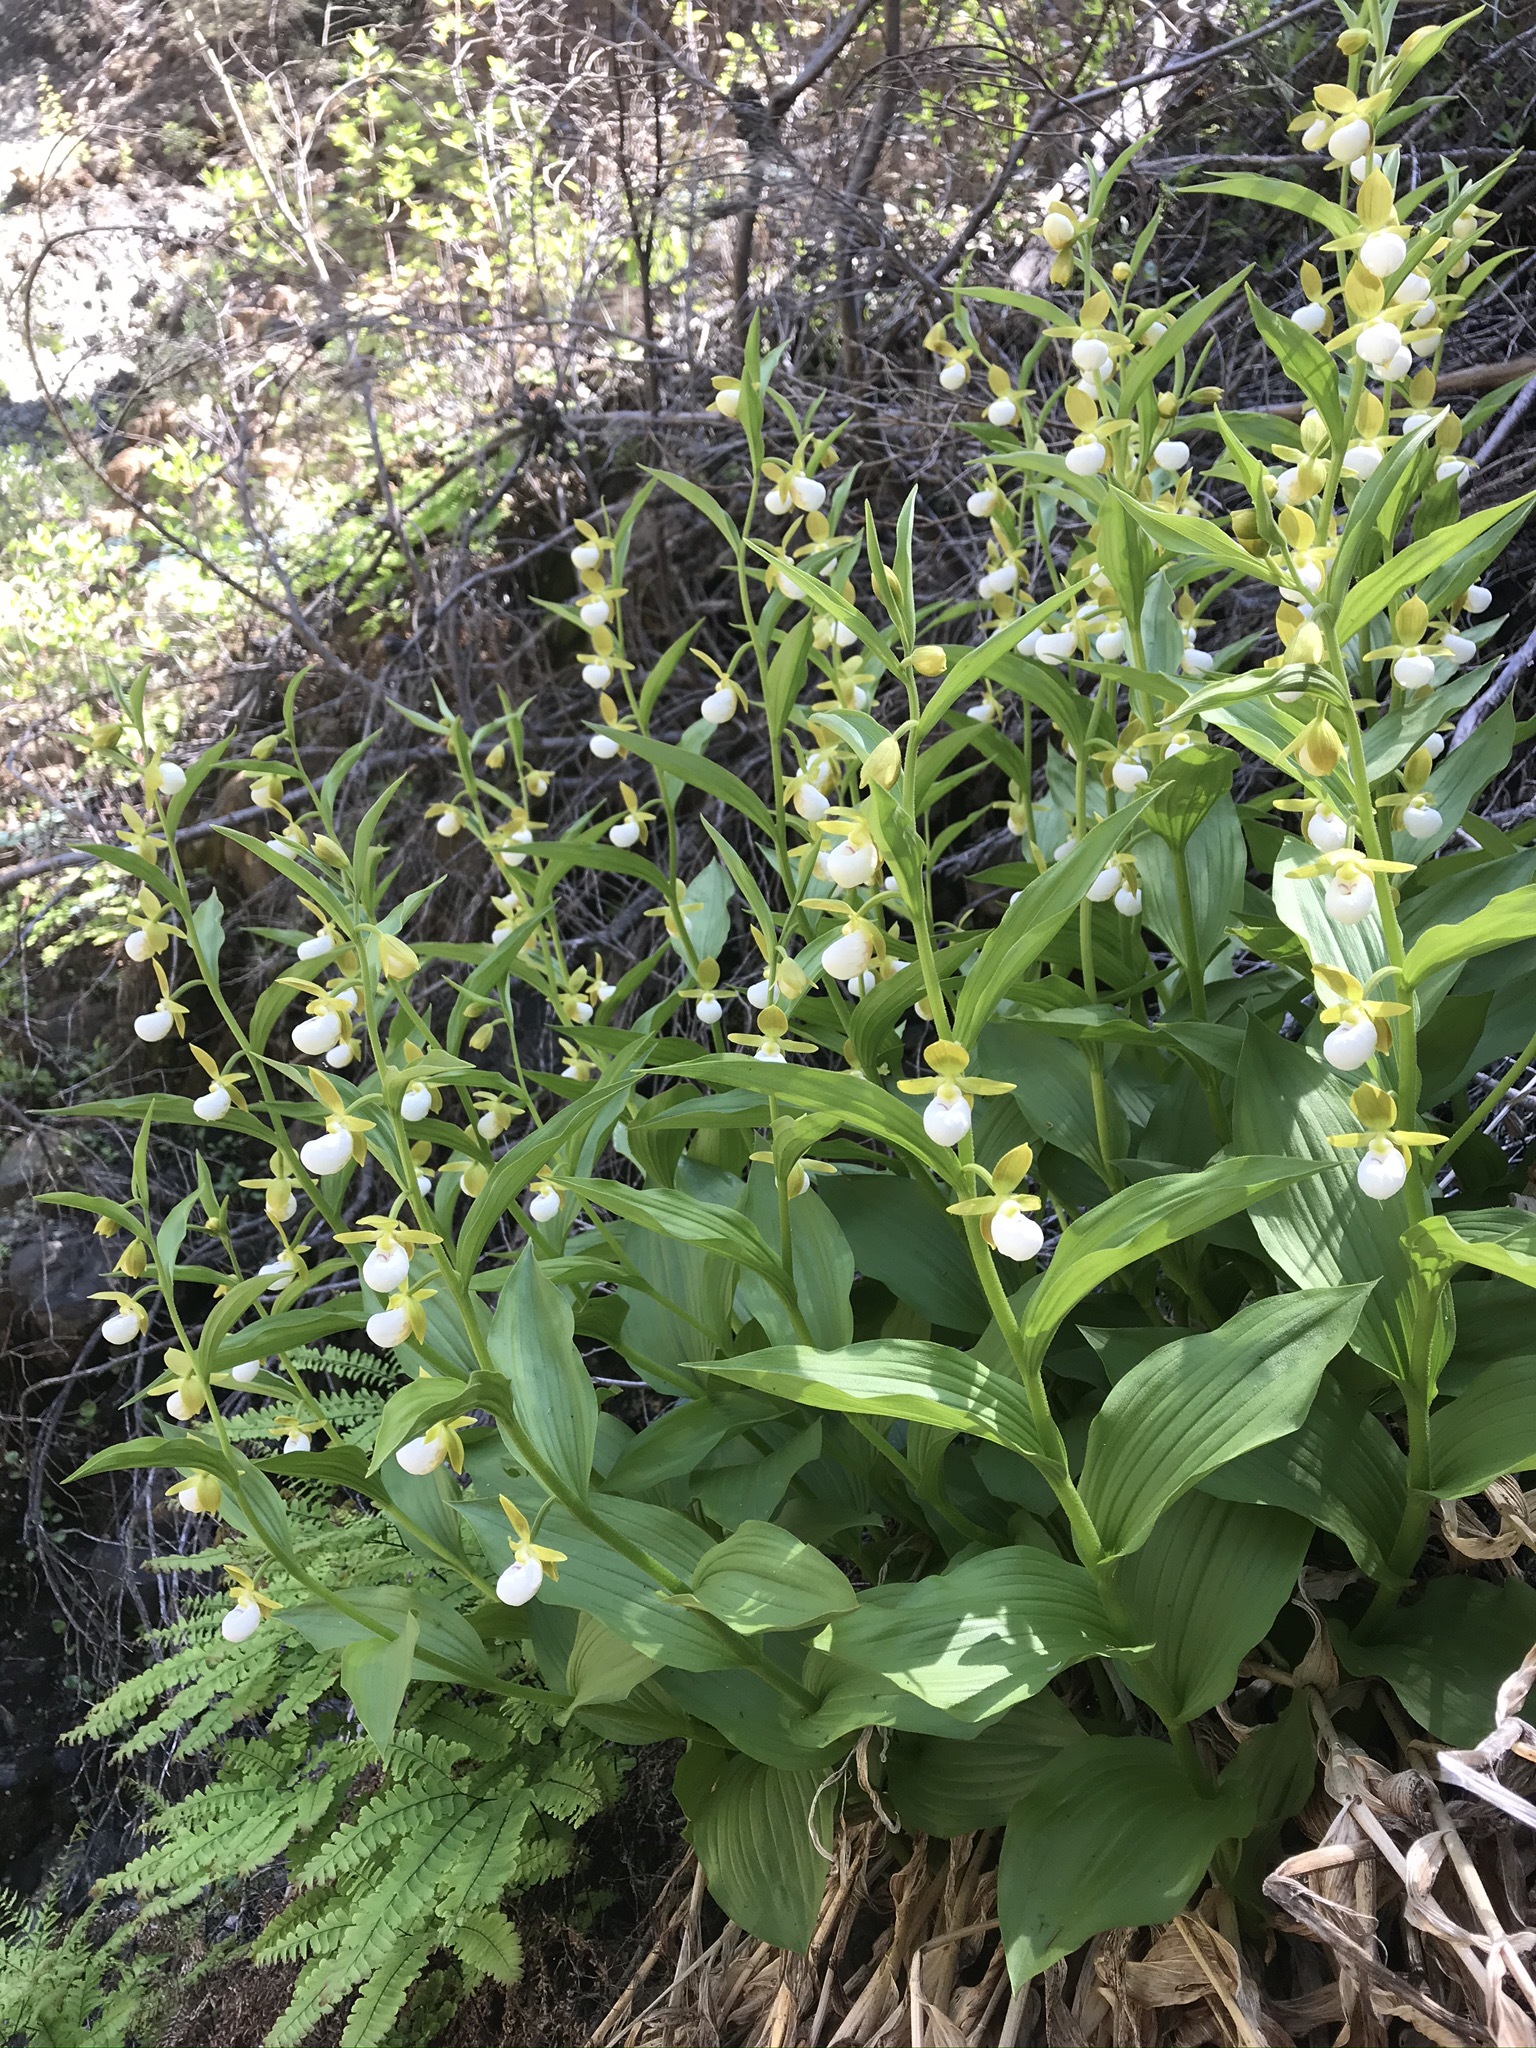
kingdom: Plantae
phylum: Tracheophyta
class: Liliopsida
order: Asparagales
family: Orchidaceae
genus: Cypripedium
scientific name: Cypripedium californicum
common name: California lady's slipper
